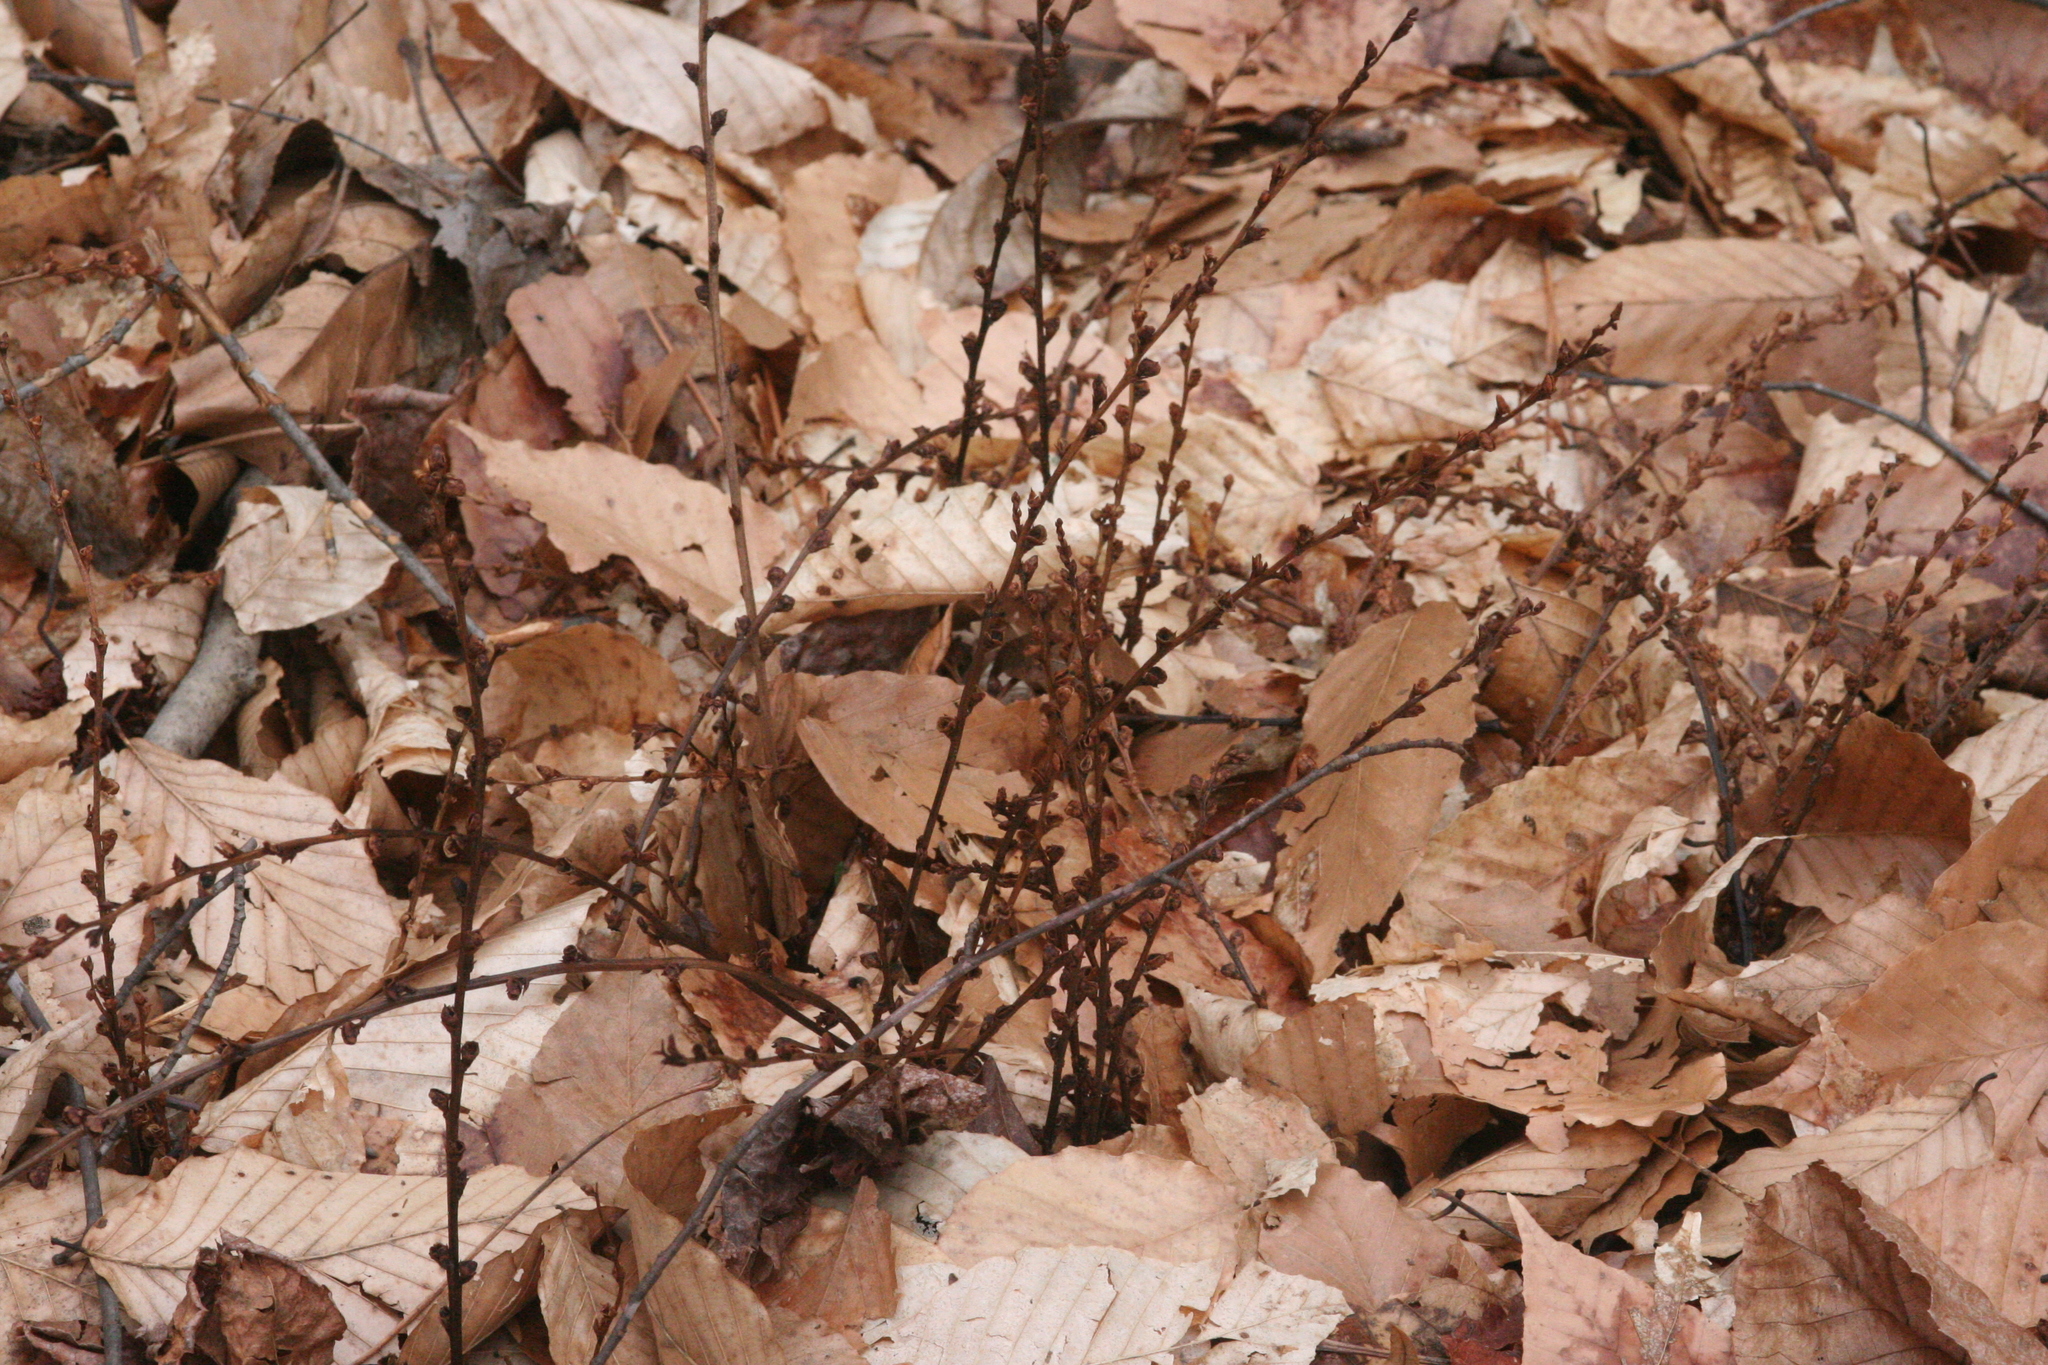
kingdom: Plantae
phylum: Tracheophyta
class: Magnoliopsida
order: Lamiales
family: Orobanchaceae
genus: Epifagus
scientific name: Epifagus virginiana
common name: Beechdrops
